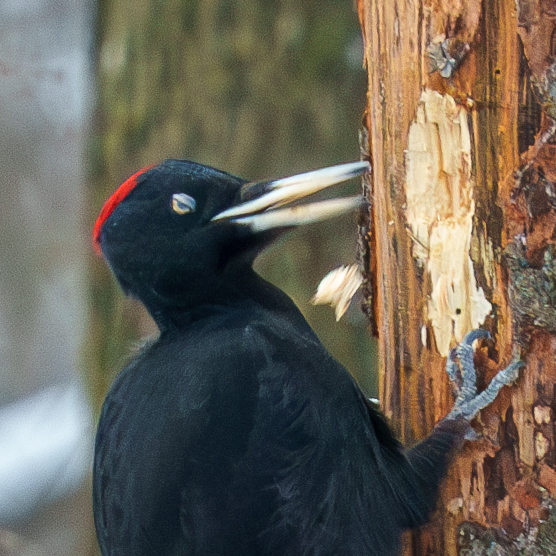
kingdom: Animalia
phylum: Chordata
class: Aves
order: Piciformes
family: Picidae
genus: Dryocopus
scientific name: Dryocopus martius
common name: Black woodpecker
